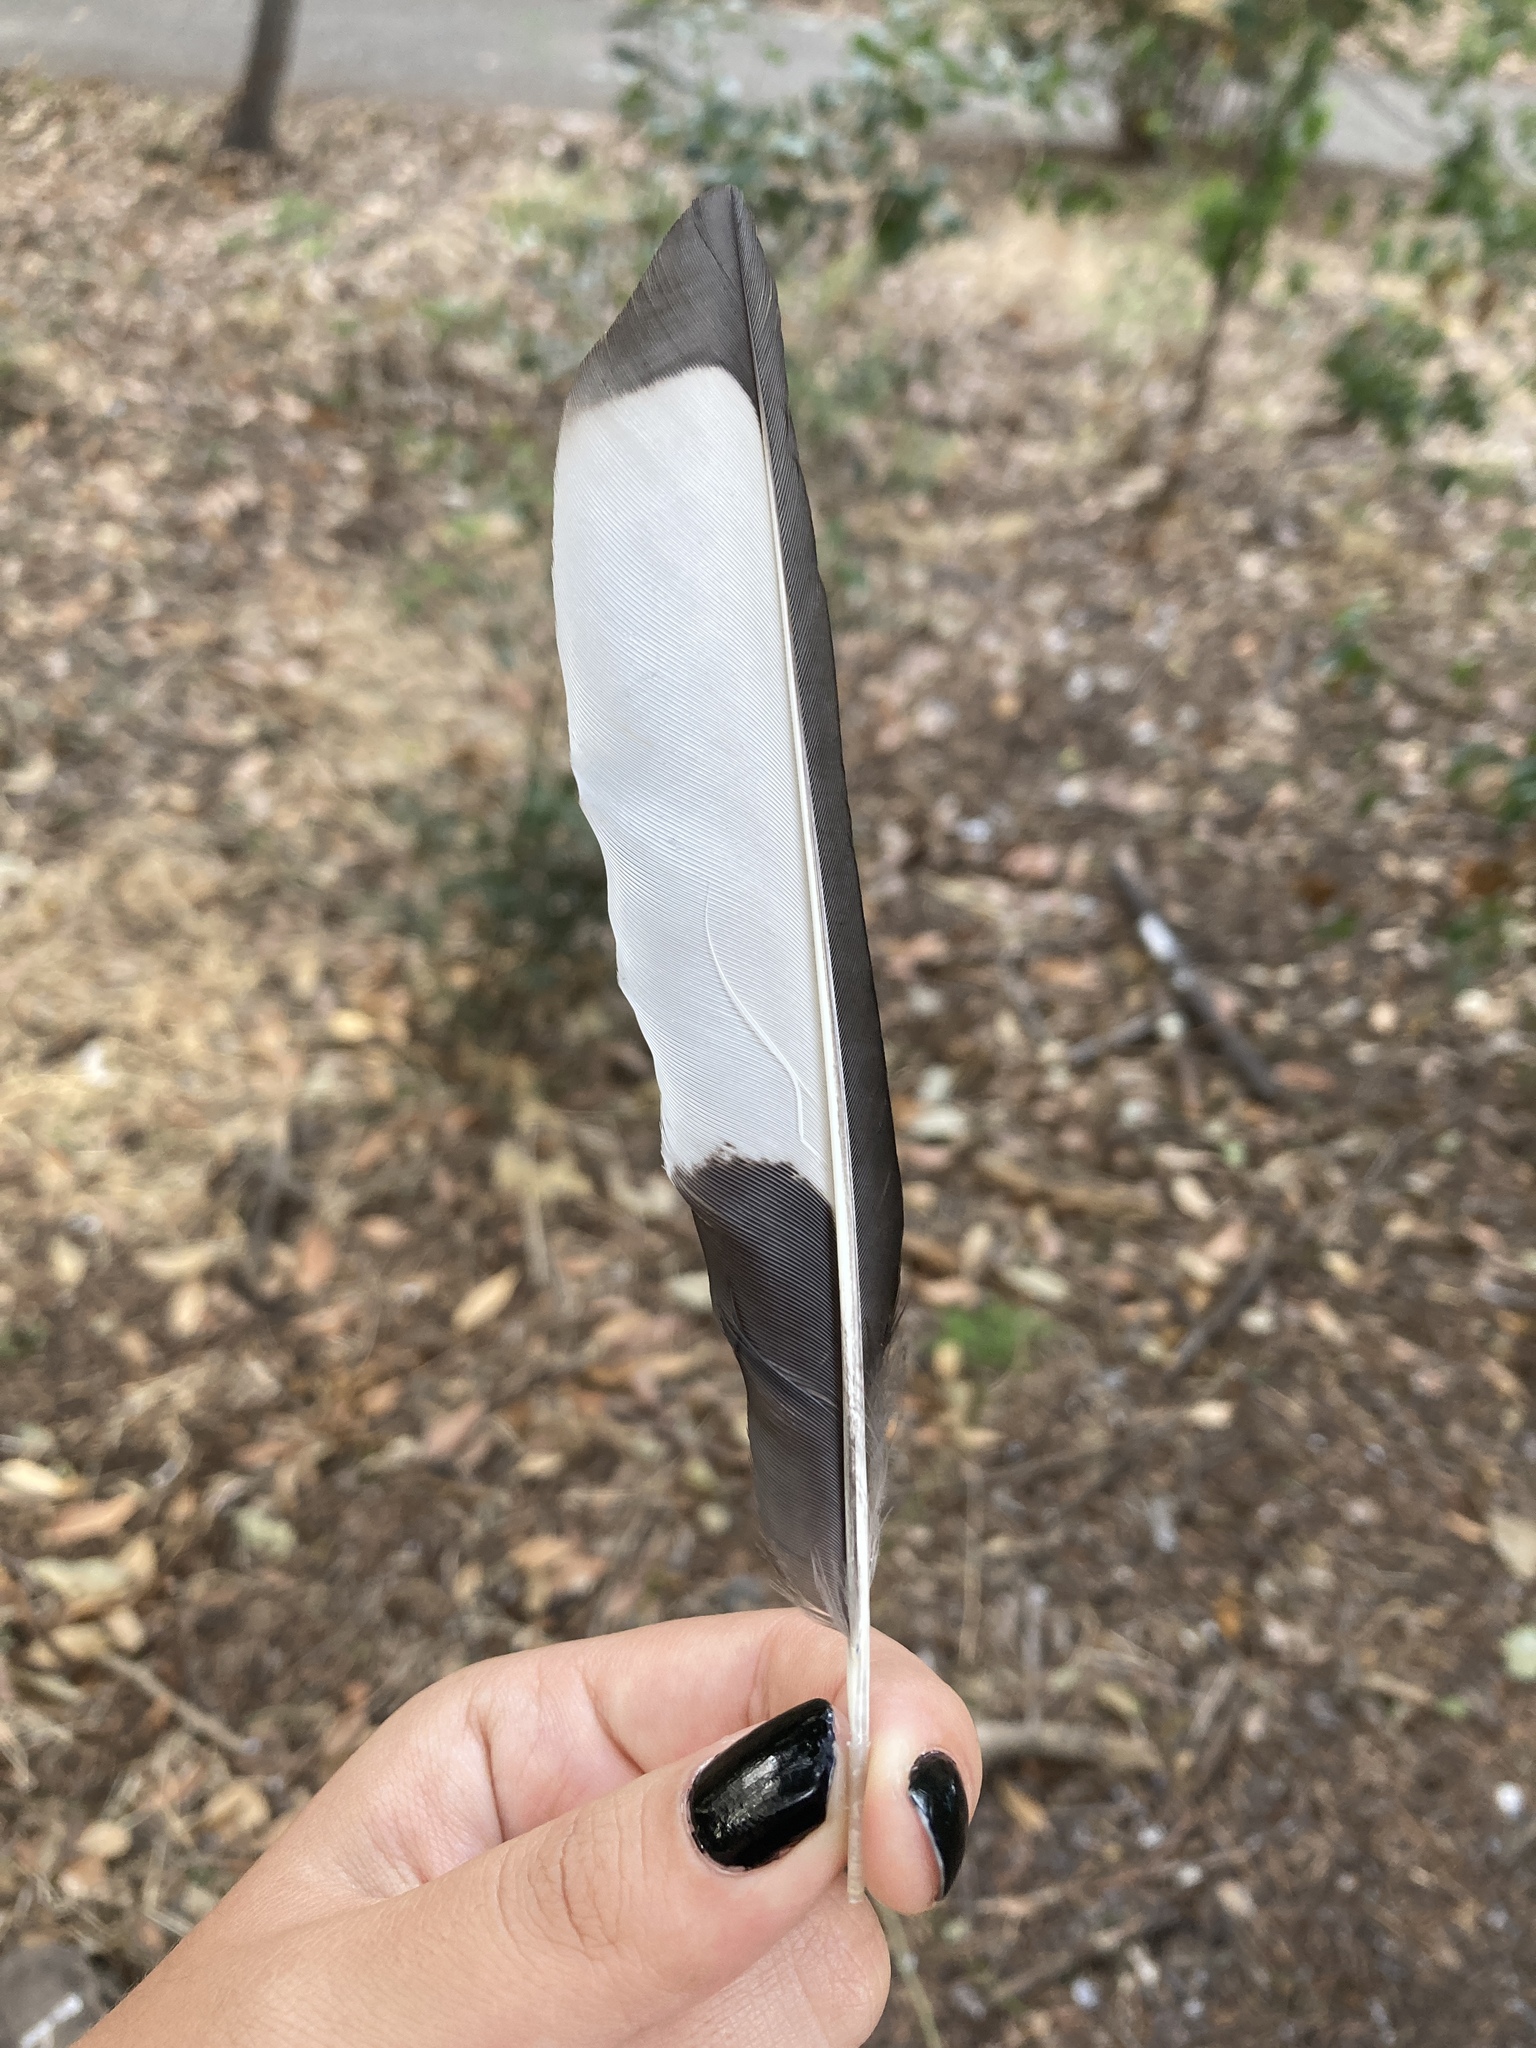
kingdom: Animalia
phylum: Chordata
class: Aves
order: Passeriformes
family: Corvidae
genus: Pica
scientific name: Pica pica
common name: Eurasian magpie
